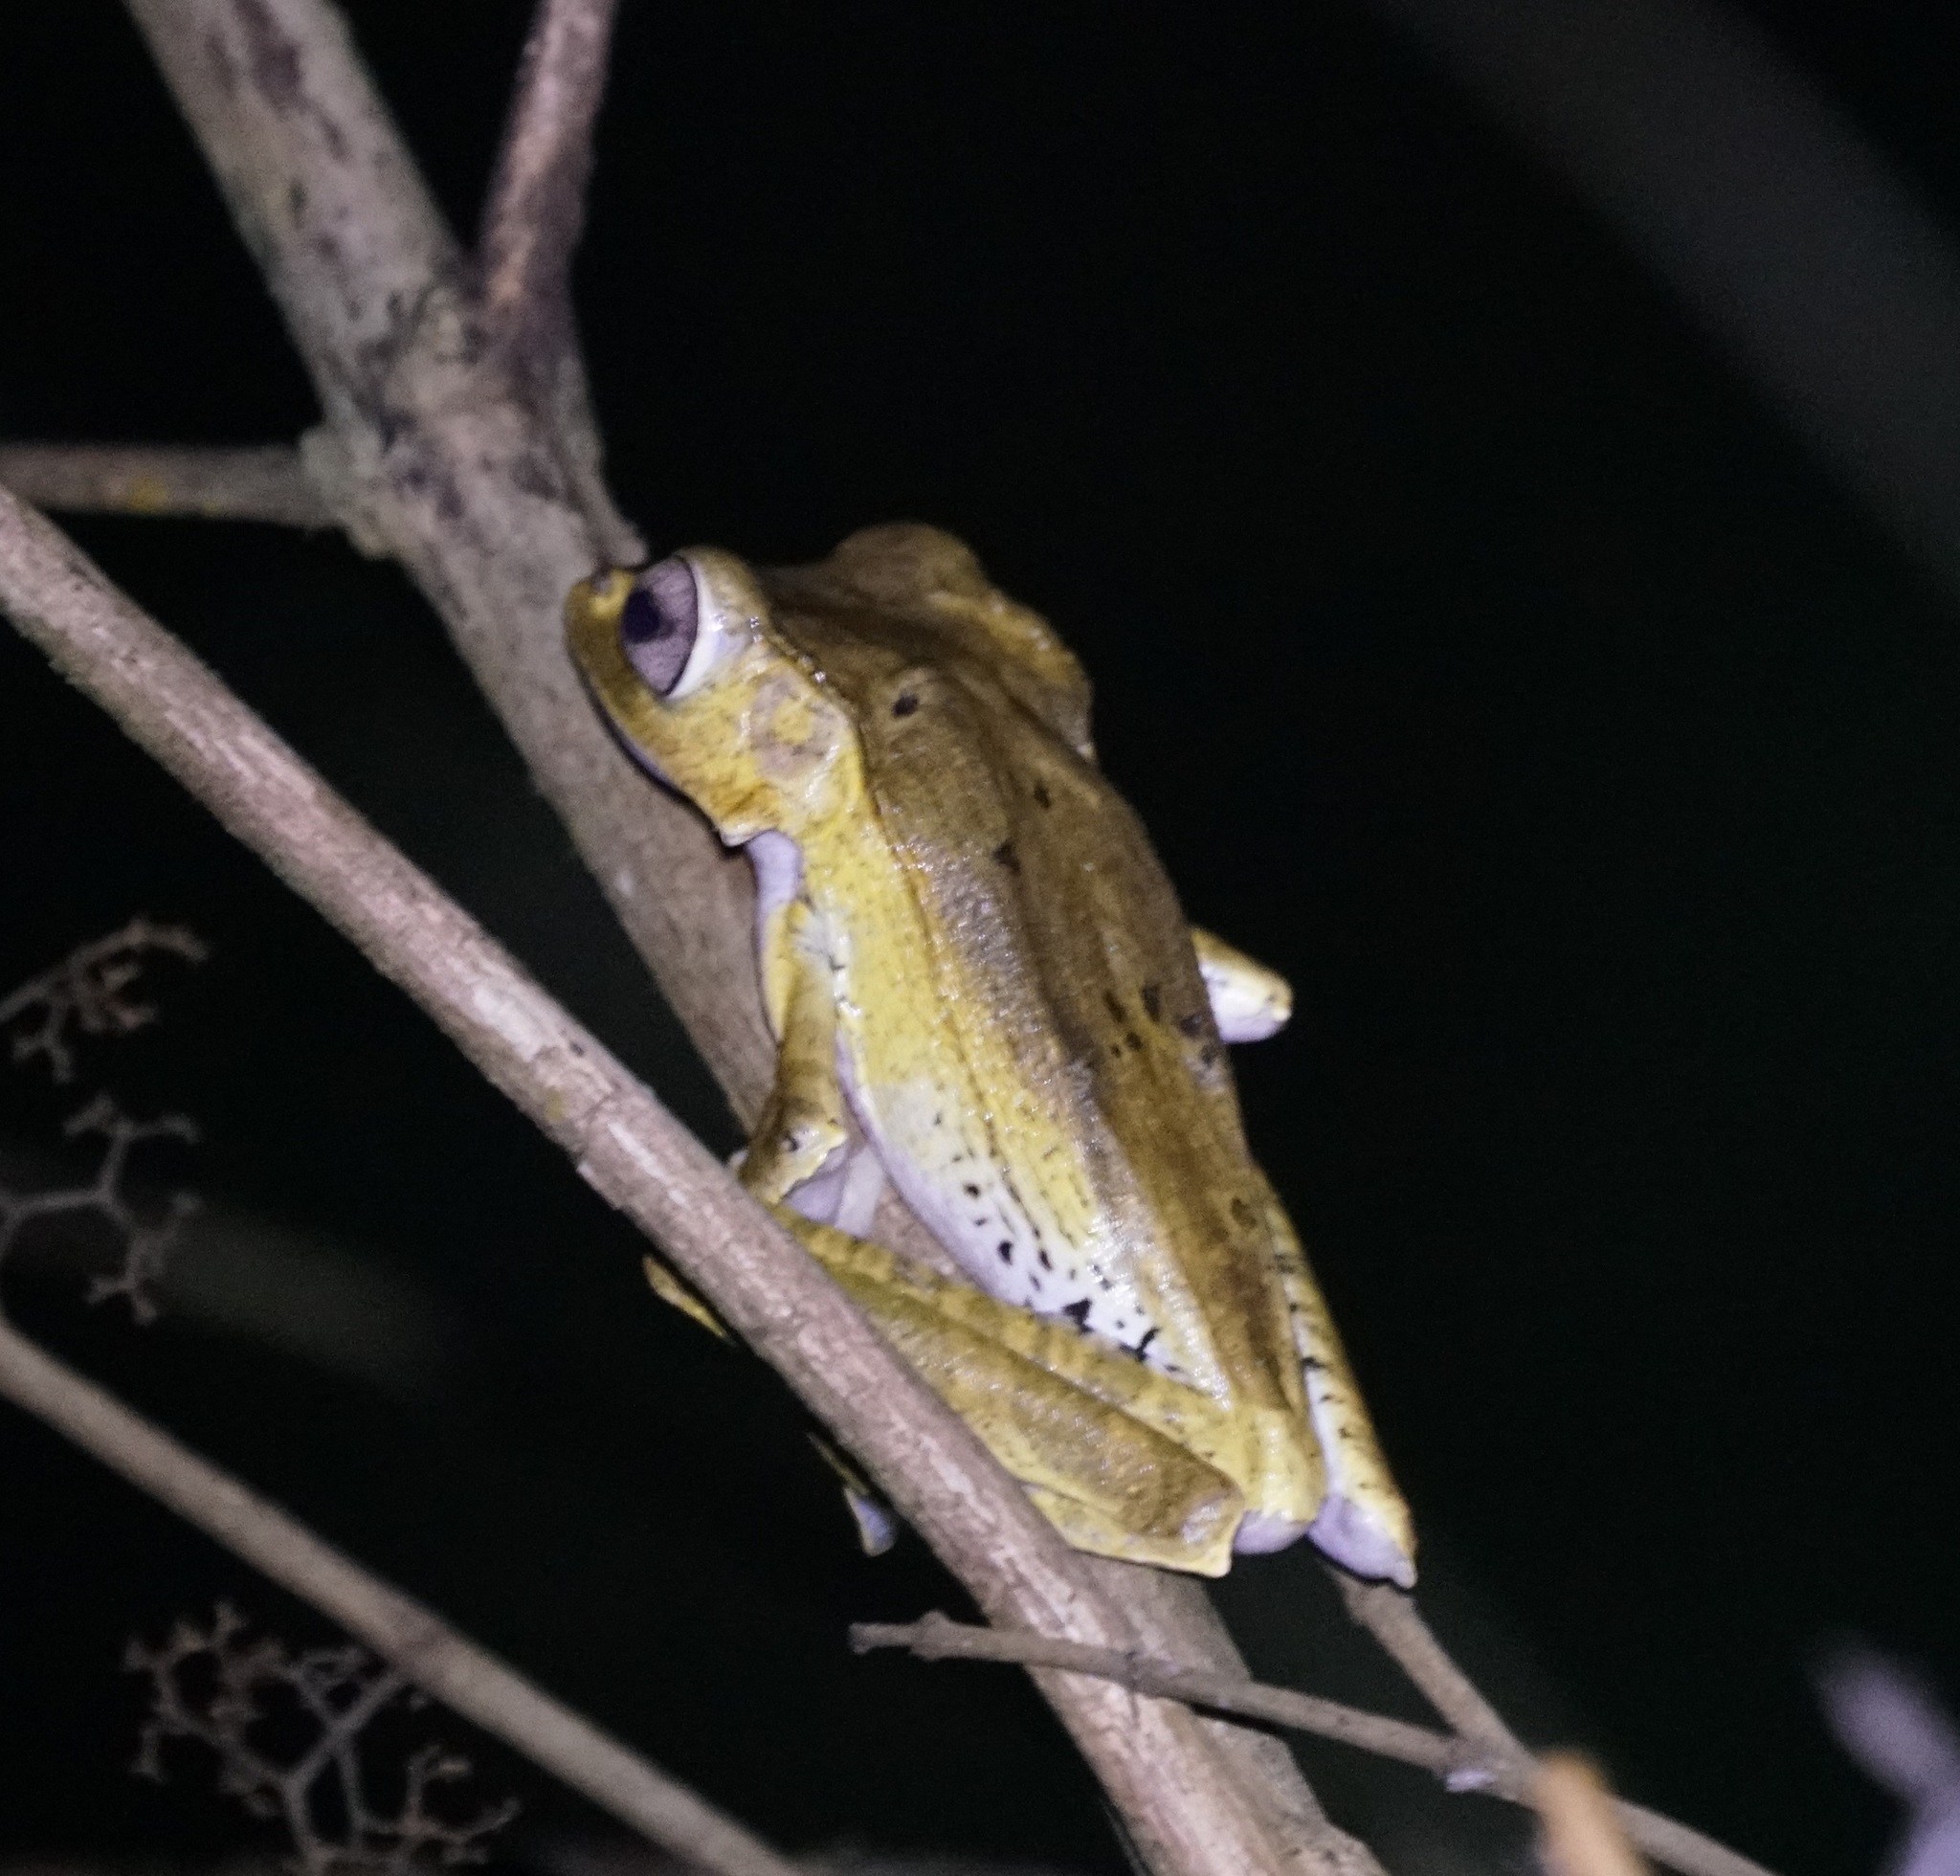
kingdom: Animalia
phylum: Chordata
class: Amphibia
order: Anura
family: Rhacophoridae
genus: Polypedates
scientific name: Polypedates otilophus
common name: File-eared tree frog
